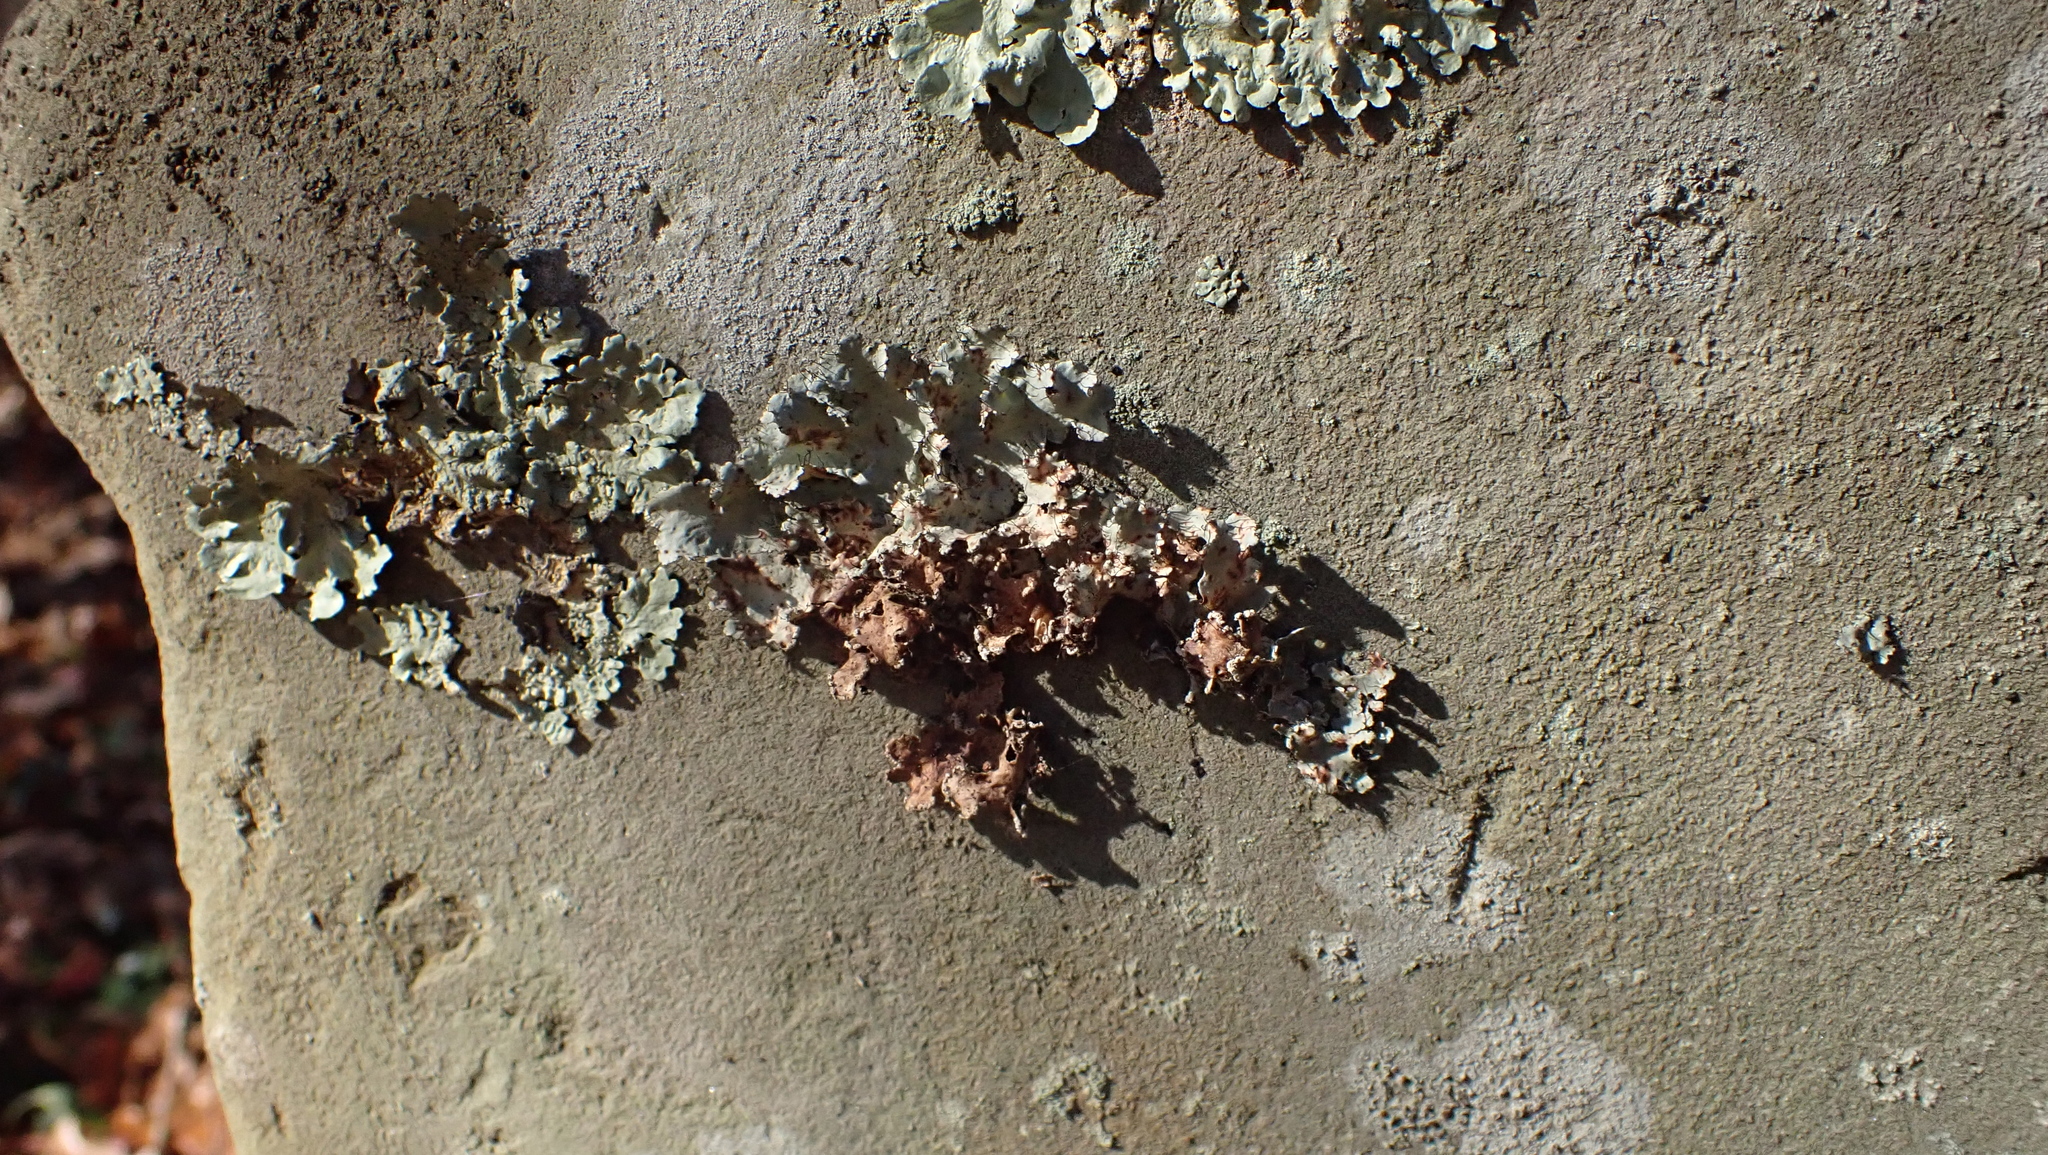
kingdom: Fungi
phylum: Ascomycota
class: Lecanoromycetes
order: Lecanorales
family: Parmeliaceae
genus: Parmotrema
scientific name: Parmotrema hypotropum
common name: Powdered ruffle lichen
